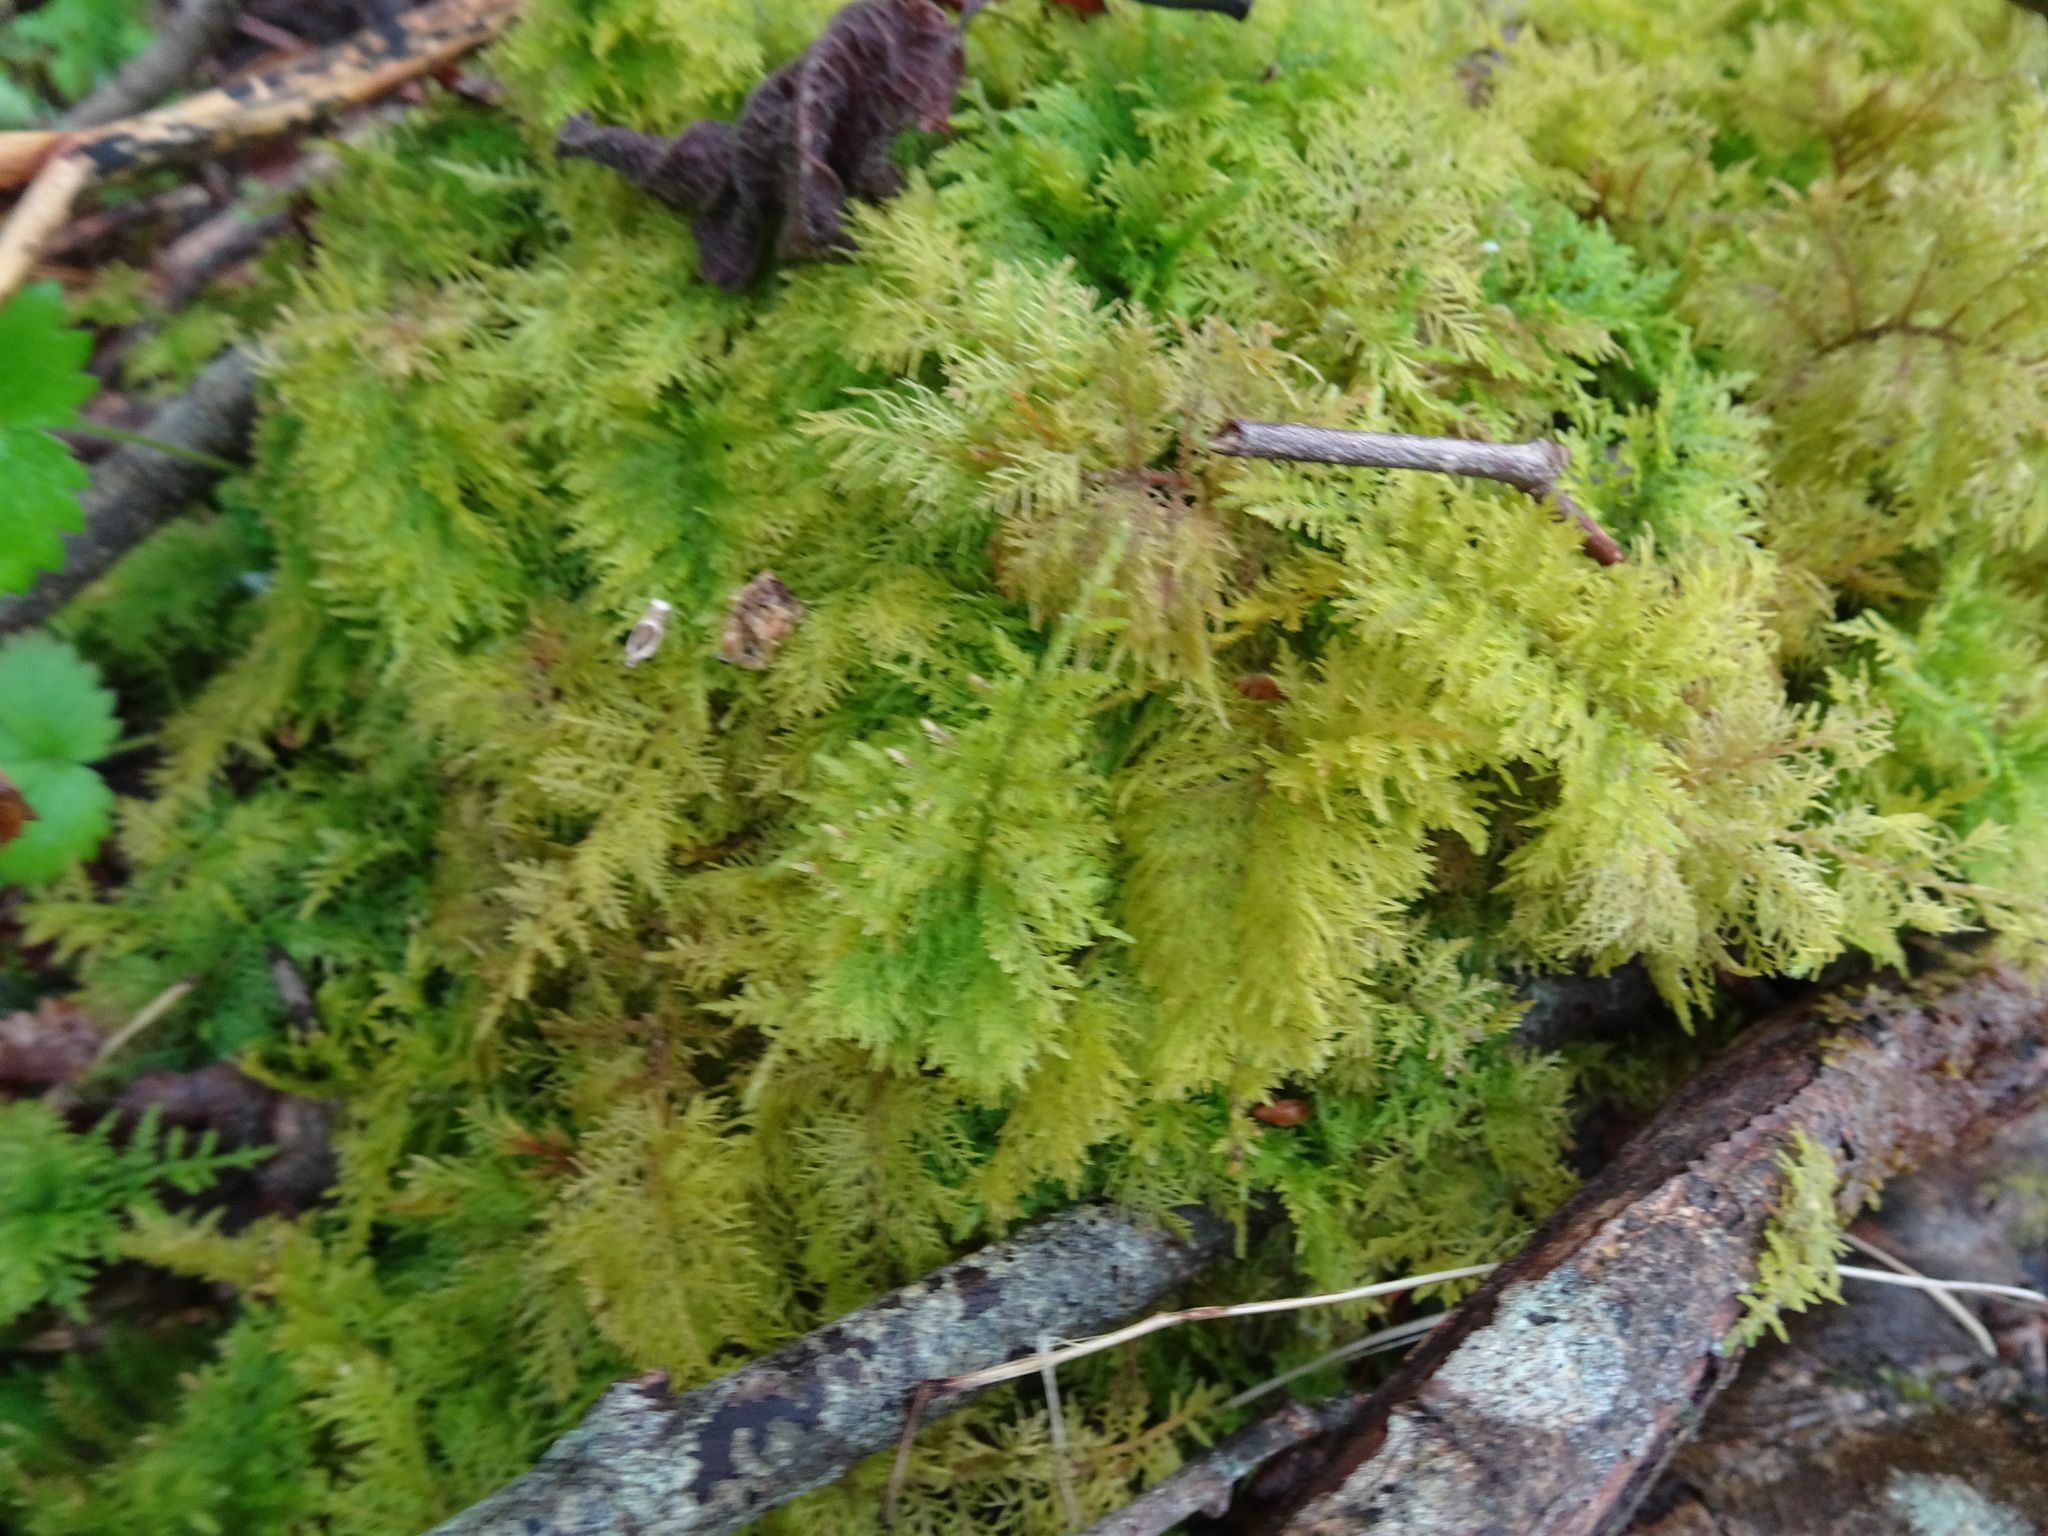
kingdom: Plantae
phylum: Bryophyta
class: Bryopsida
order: Hypnales
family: Thuidiaceae
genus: Thuidium
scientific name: Thuidium tamariscinum
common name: Common tamarisk-moss
